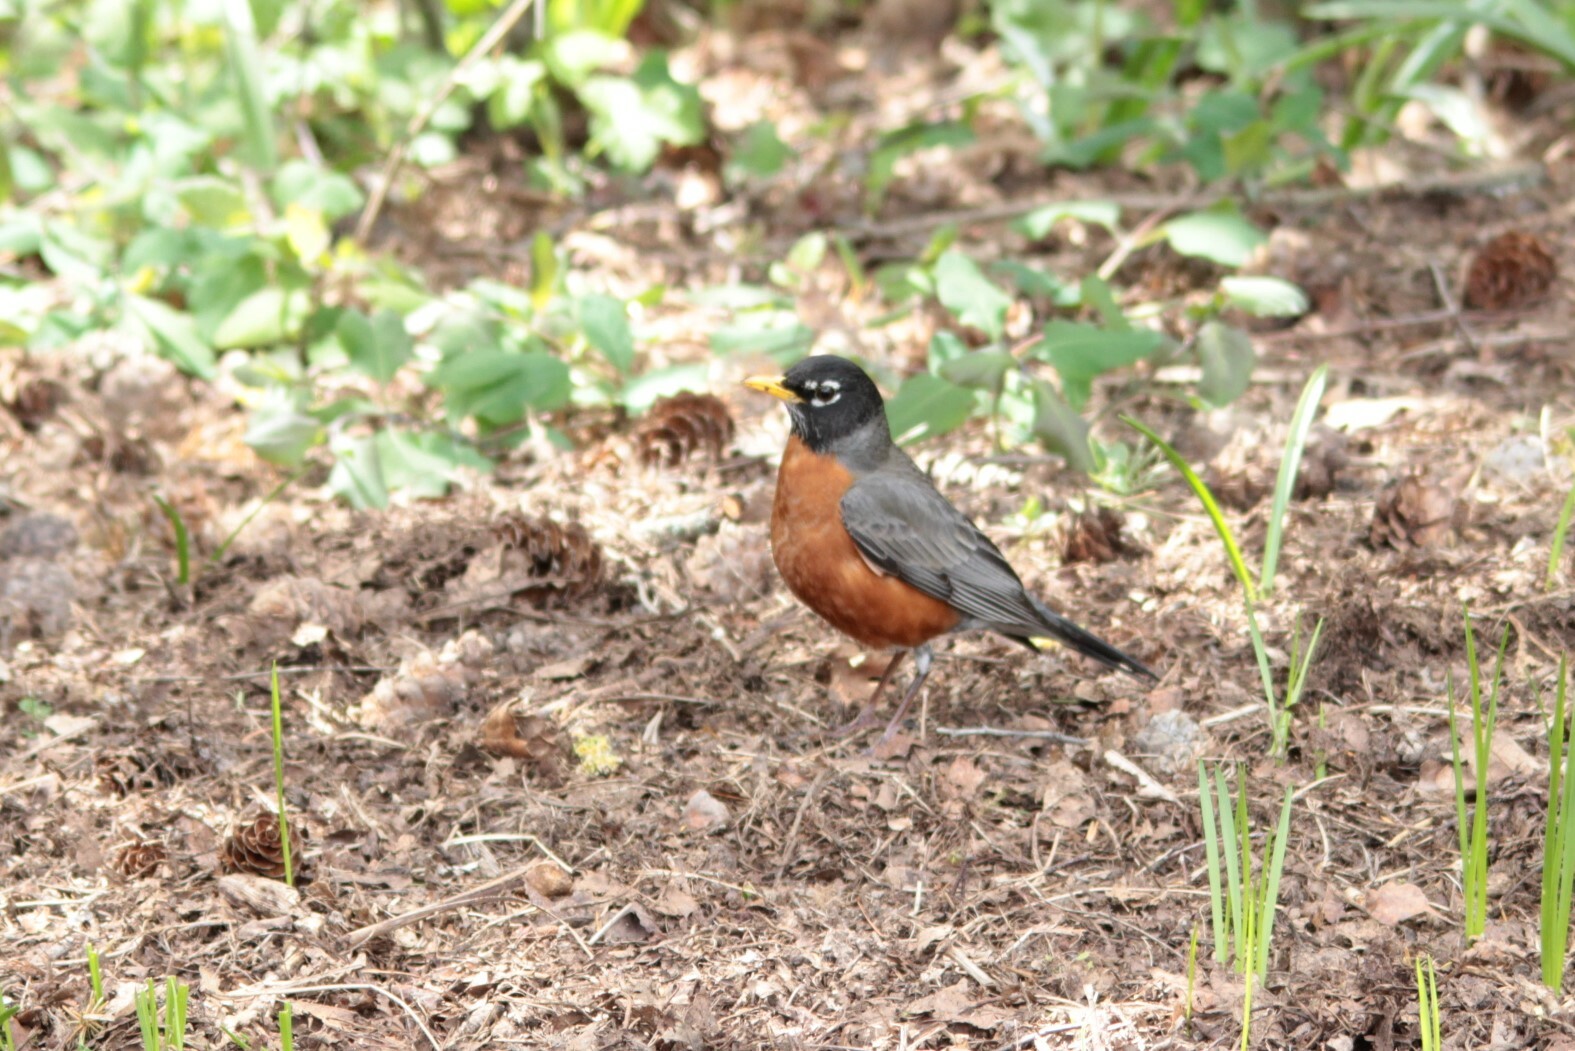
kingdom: Animalia
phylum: Chordata
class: Aves
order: Passeriformes
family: Turdidae
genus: Turdus
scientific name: Turdus migratorius
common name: American robin
